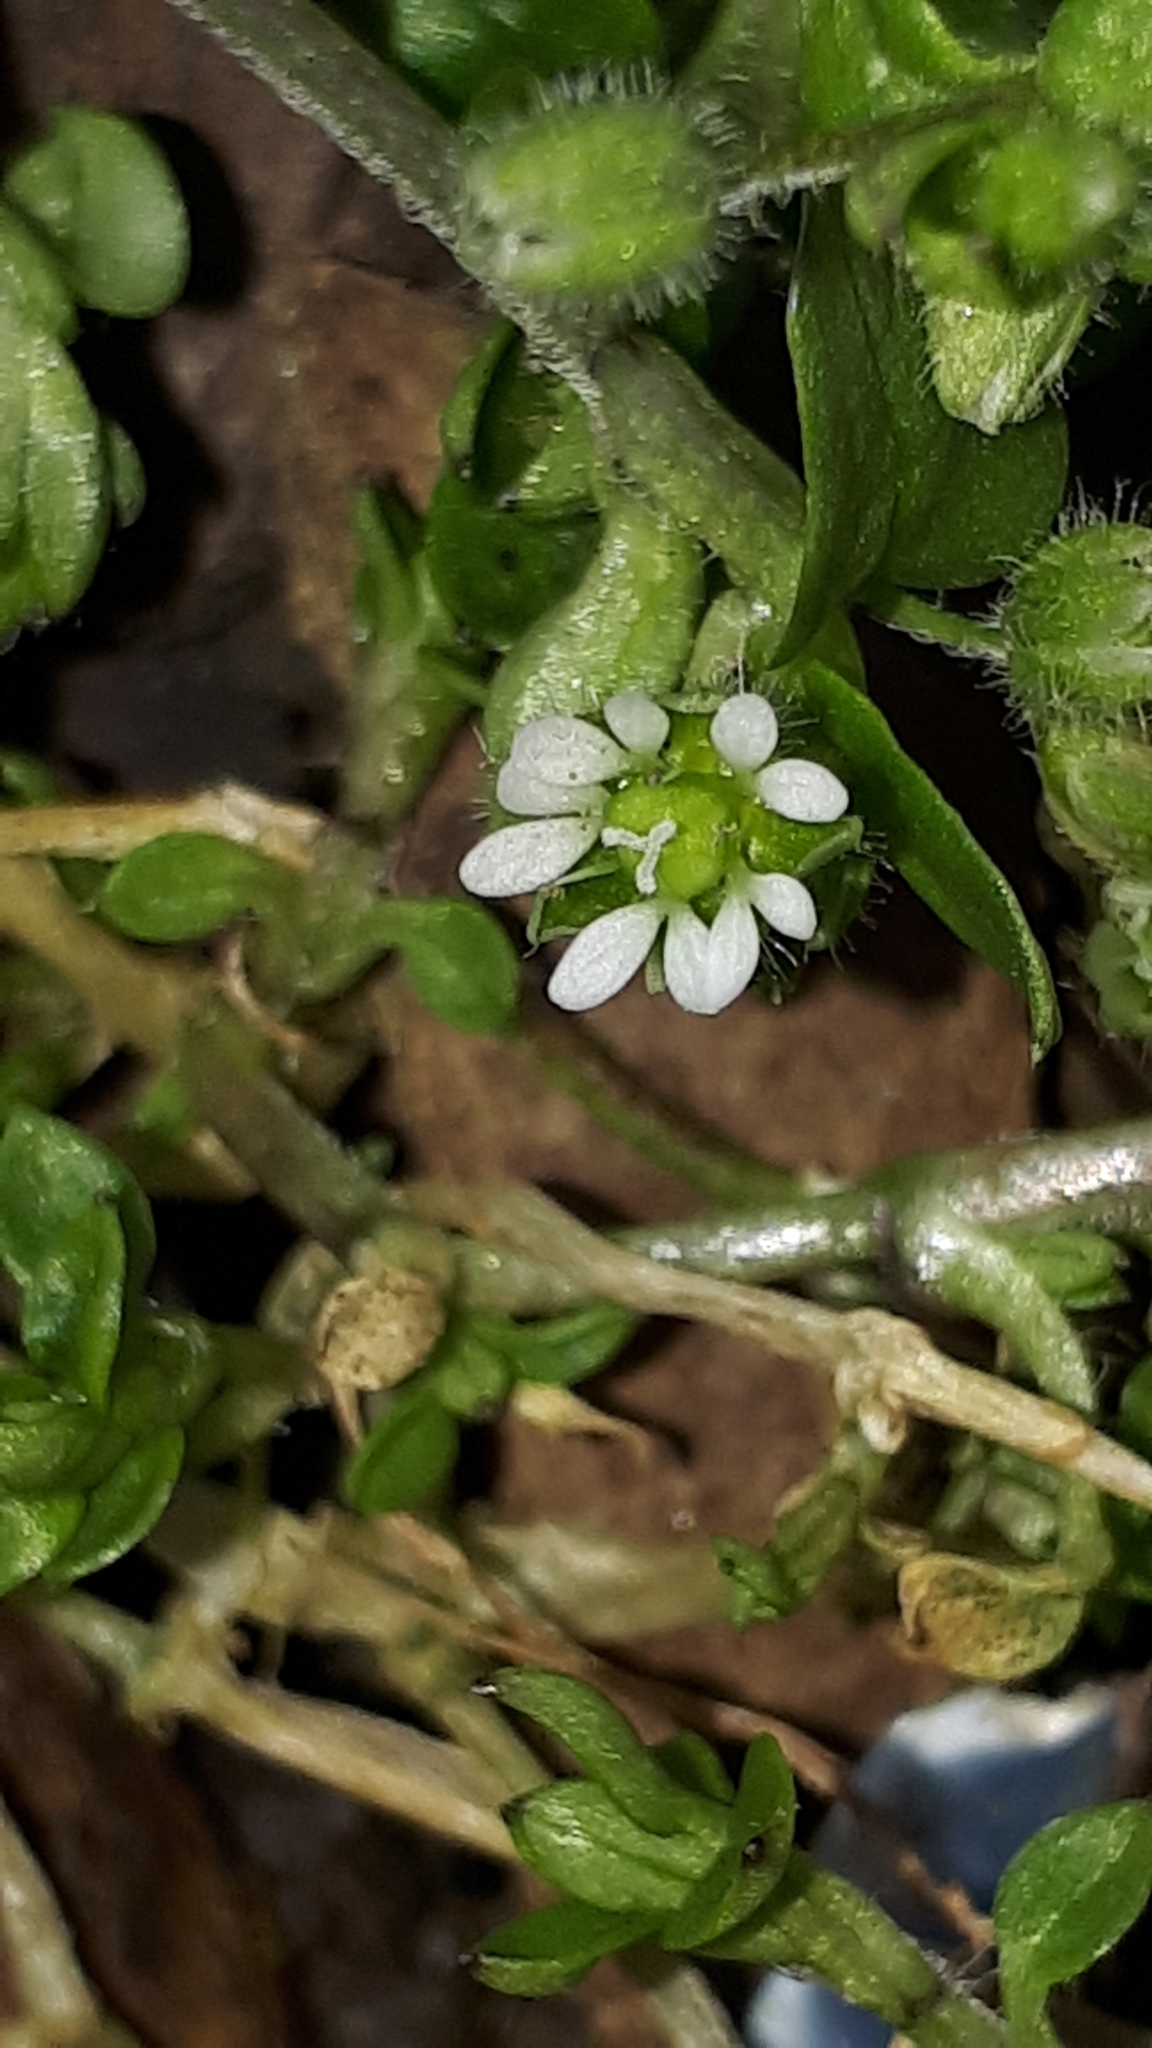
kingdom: Plantae
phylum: Tracheophyta
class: Magnoliopsida
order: Caryophyllales
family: Caryophyllaceae
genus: Stellaria
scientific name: Stellaria media
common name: Common chickweed
